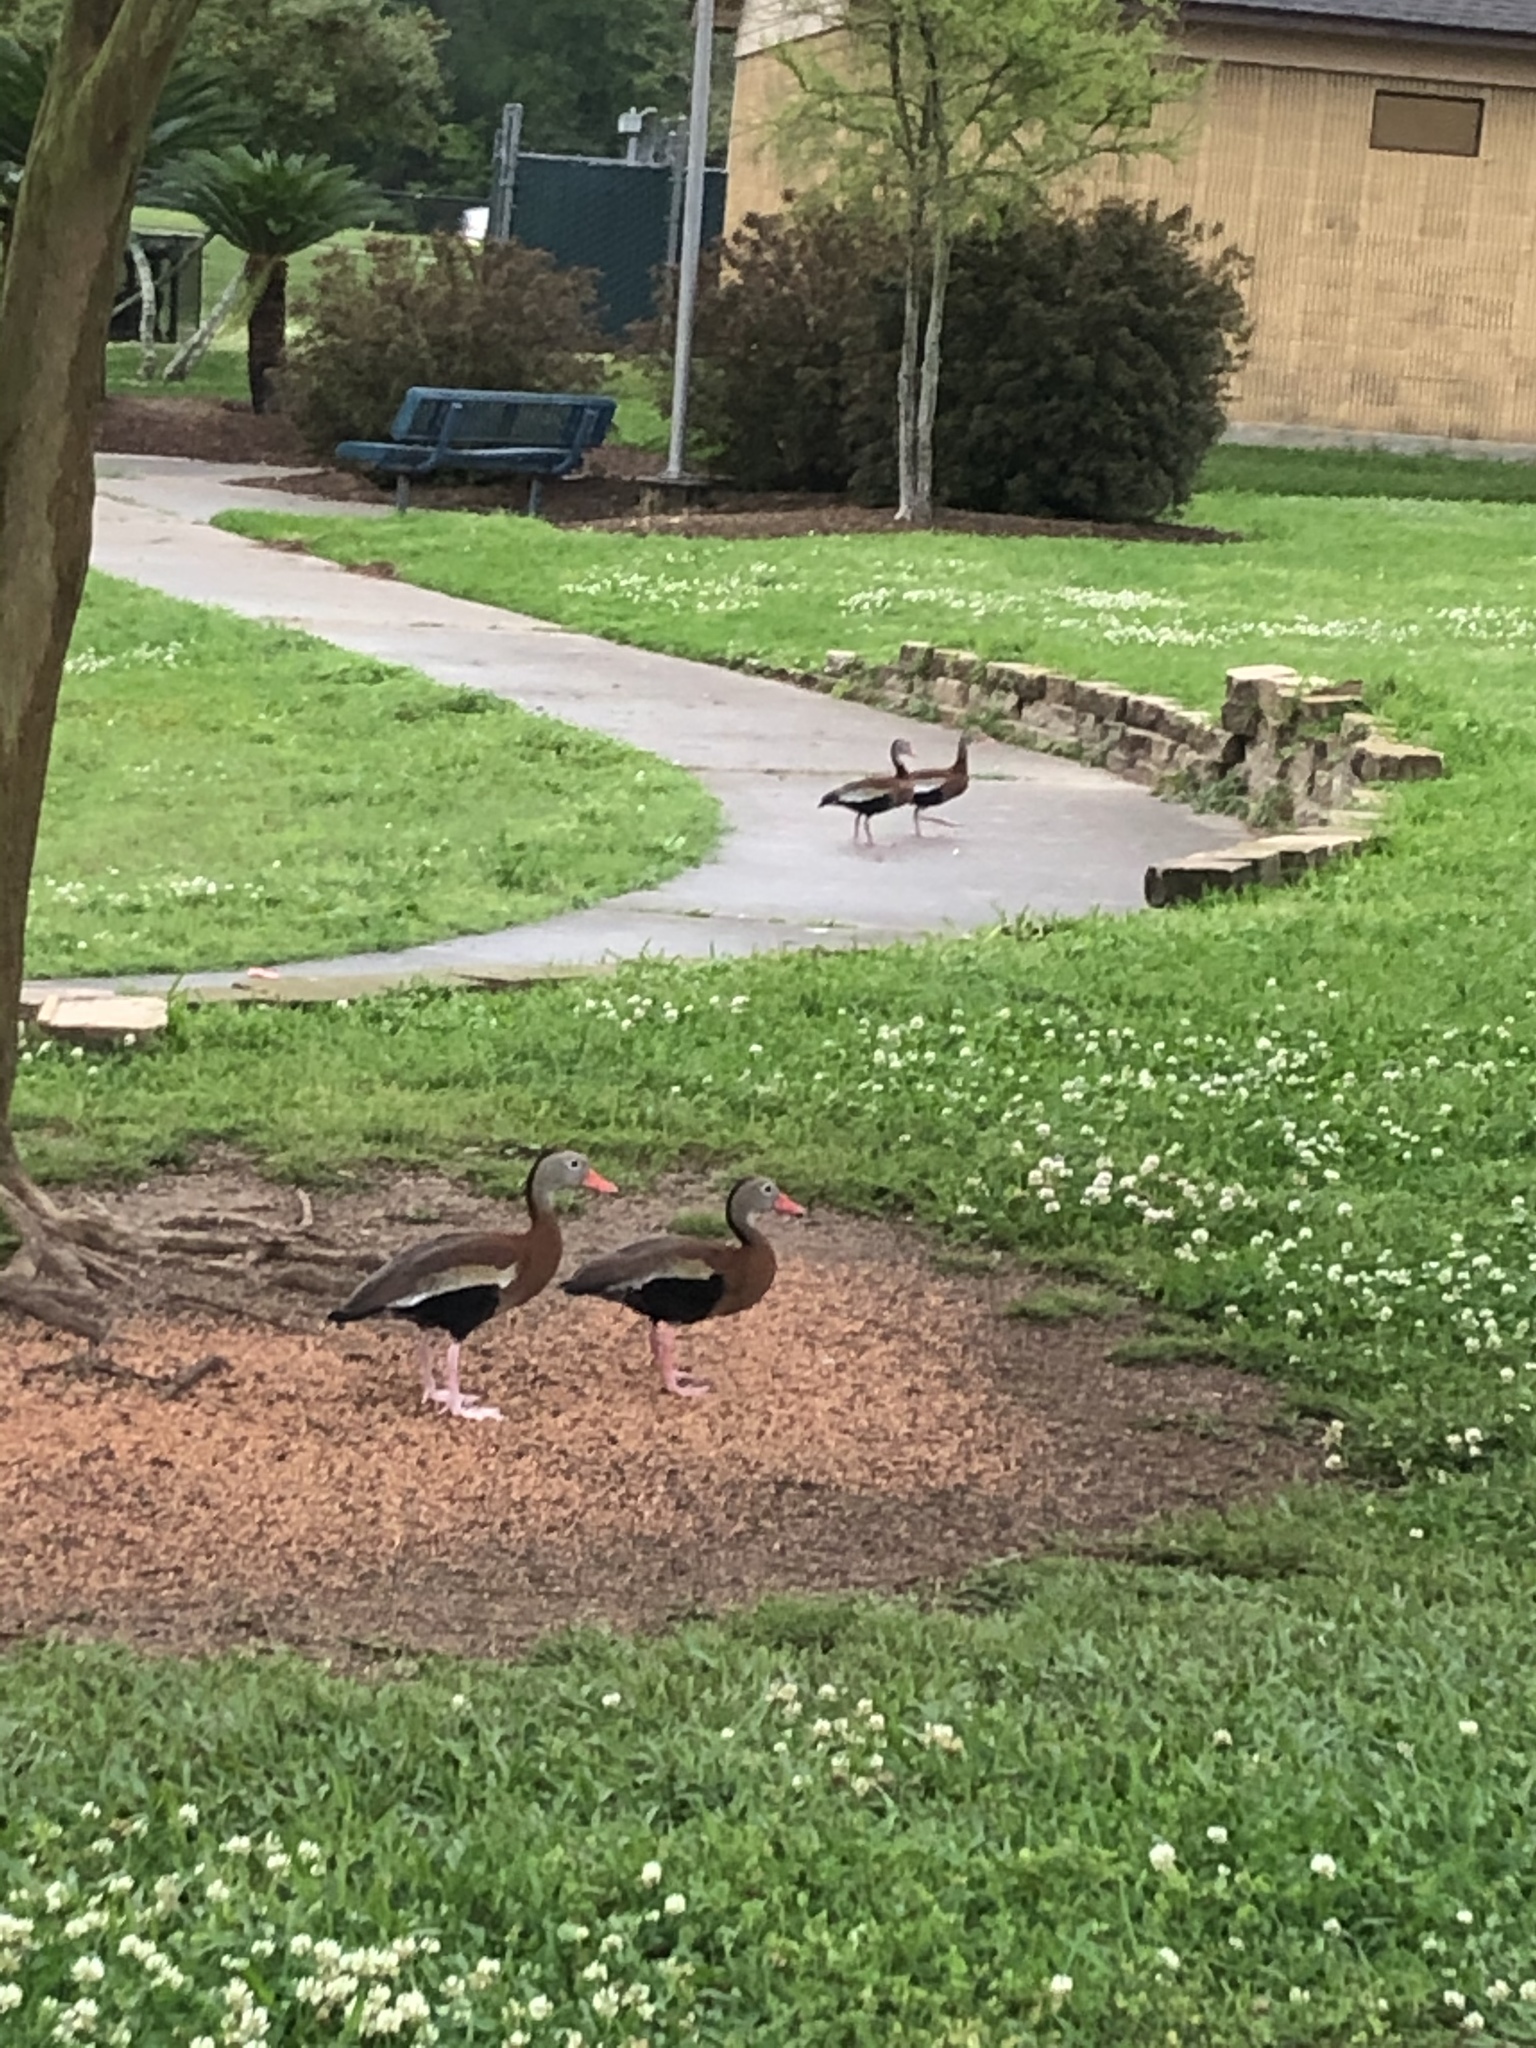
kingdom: Animalia
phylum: Chordata
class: Aves
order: Anseriformes
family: Anatidae
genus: Dendrocygna
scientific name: Dendrocygna autumnalis
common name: Black-bellied whistling duck
